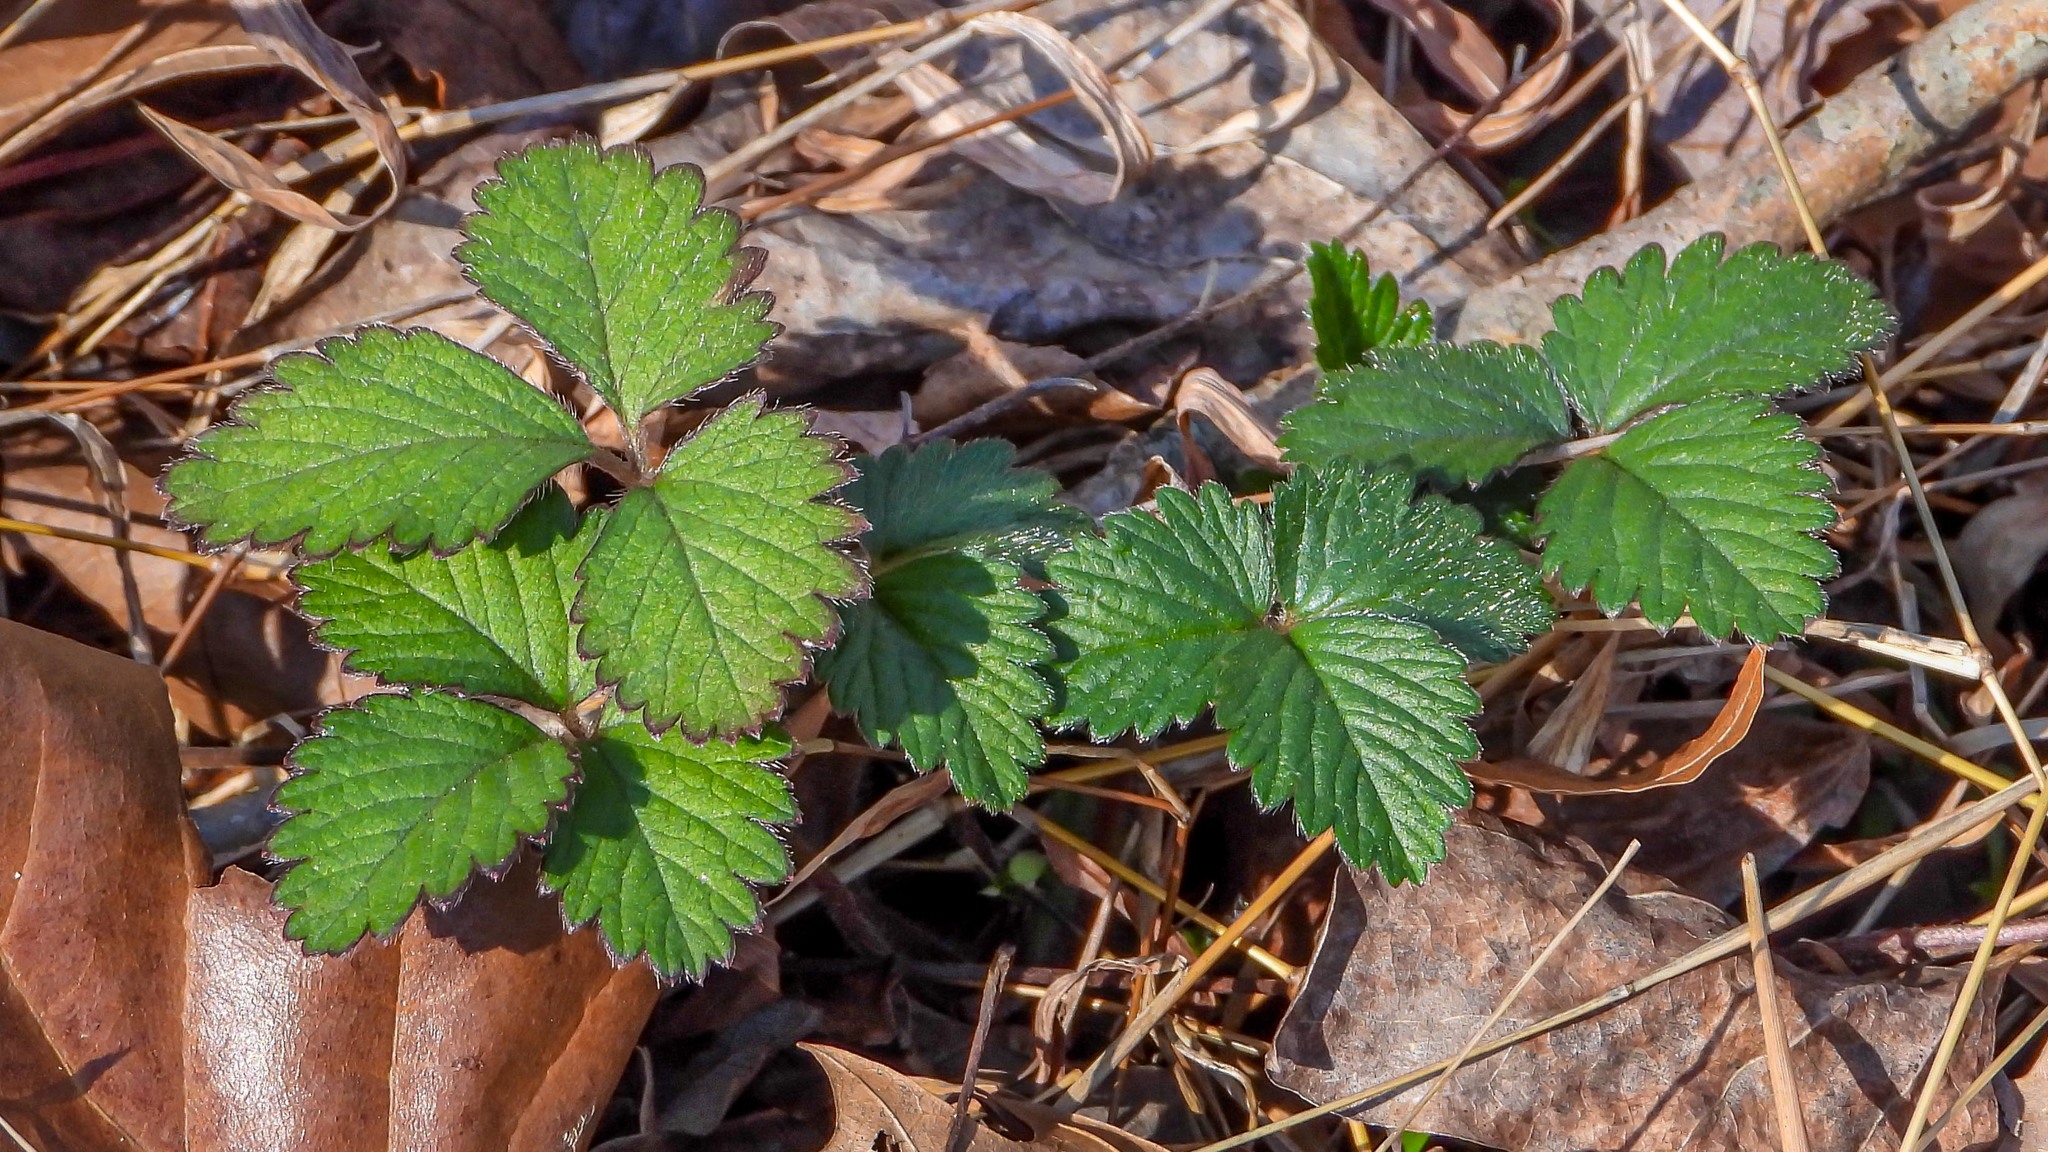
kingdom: Plantae
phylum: Tracheophyta
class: Magnoliopsida
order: Rosales
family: Rosaceae
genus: Potentilla
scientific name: Potentilla indica
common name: Yellow-flowered strawberry
